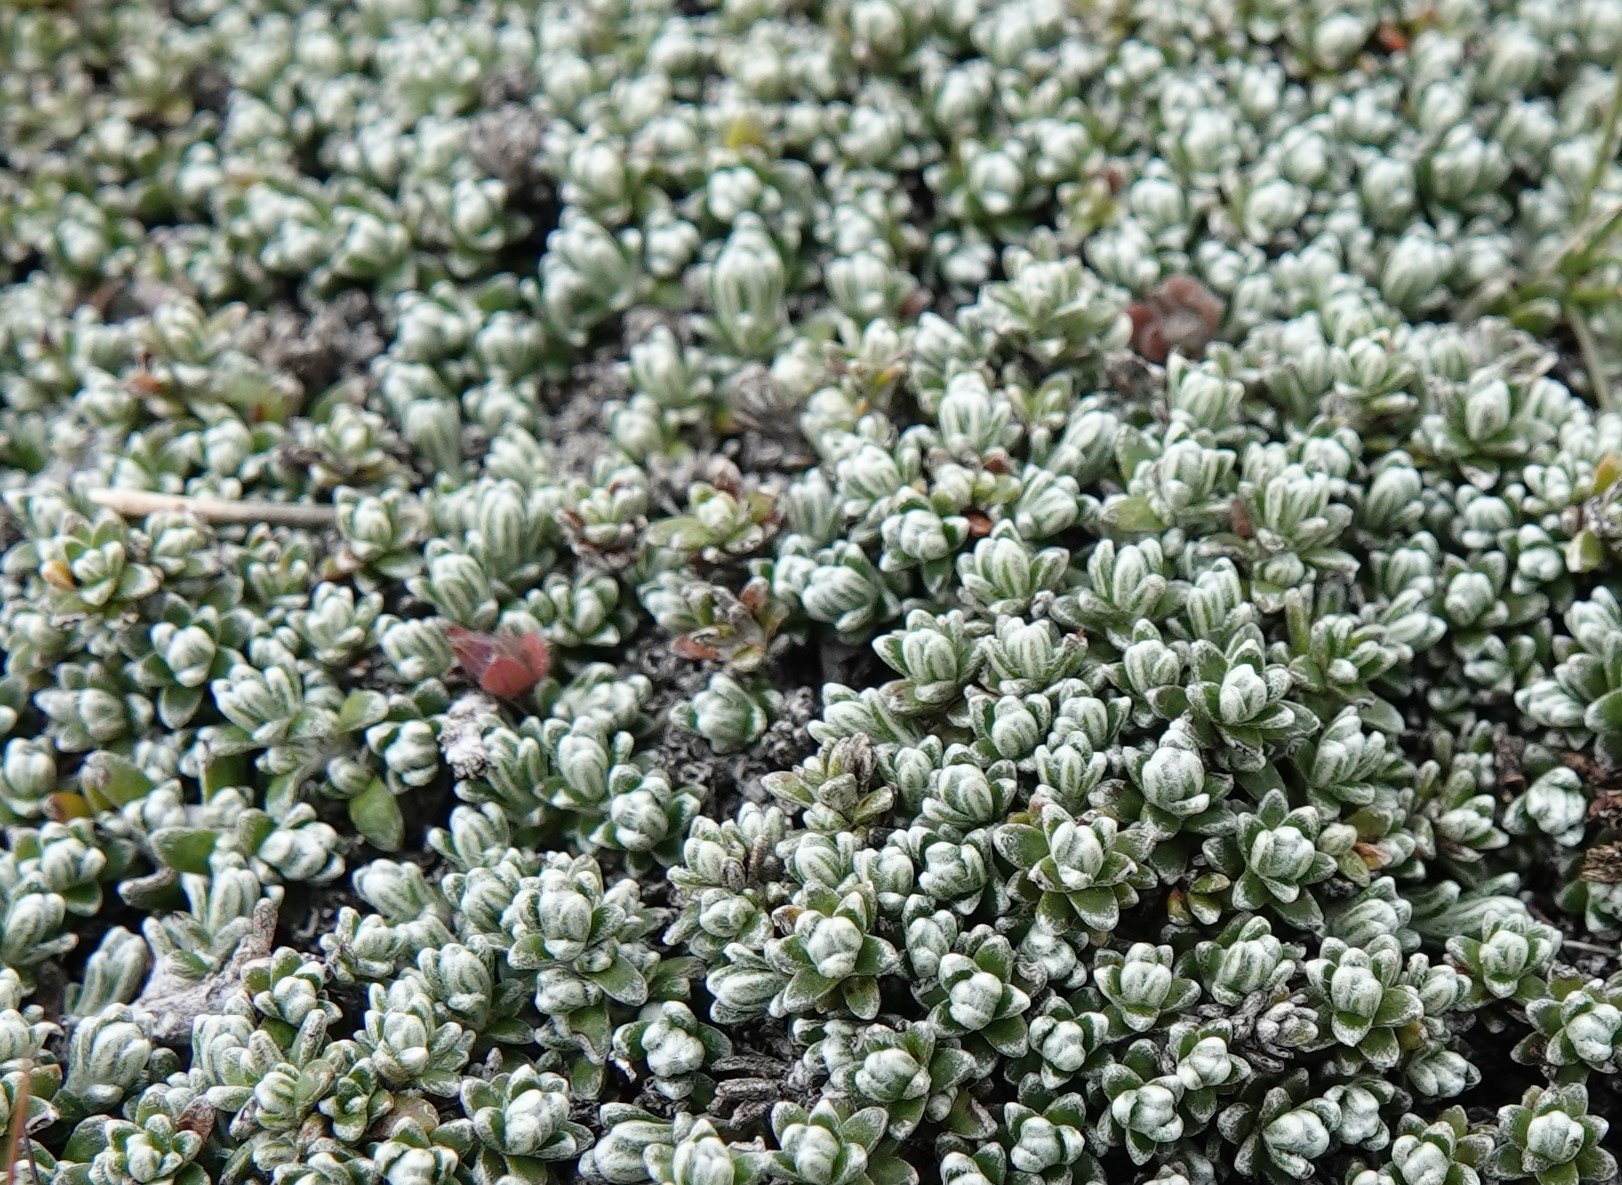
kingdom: Plantae
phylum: Tracheophyta
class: Magnoliopsida
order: Asterales
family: Asteraceae
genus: Nardophyllum
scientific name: Nardophyllum bryoides
